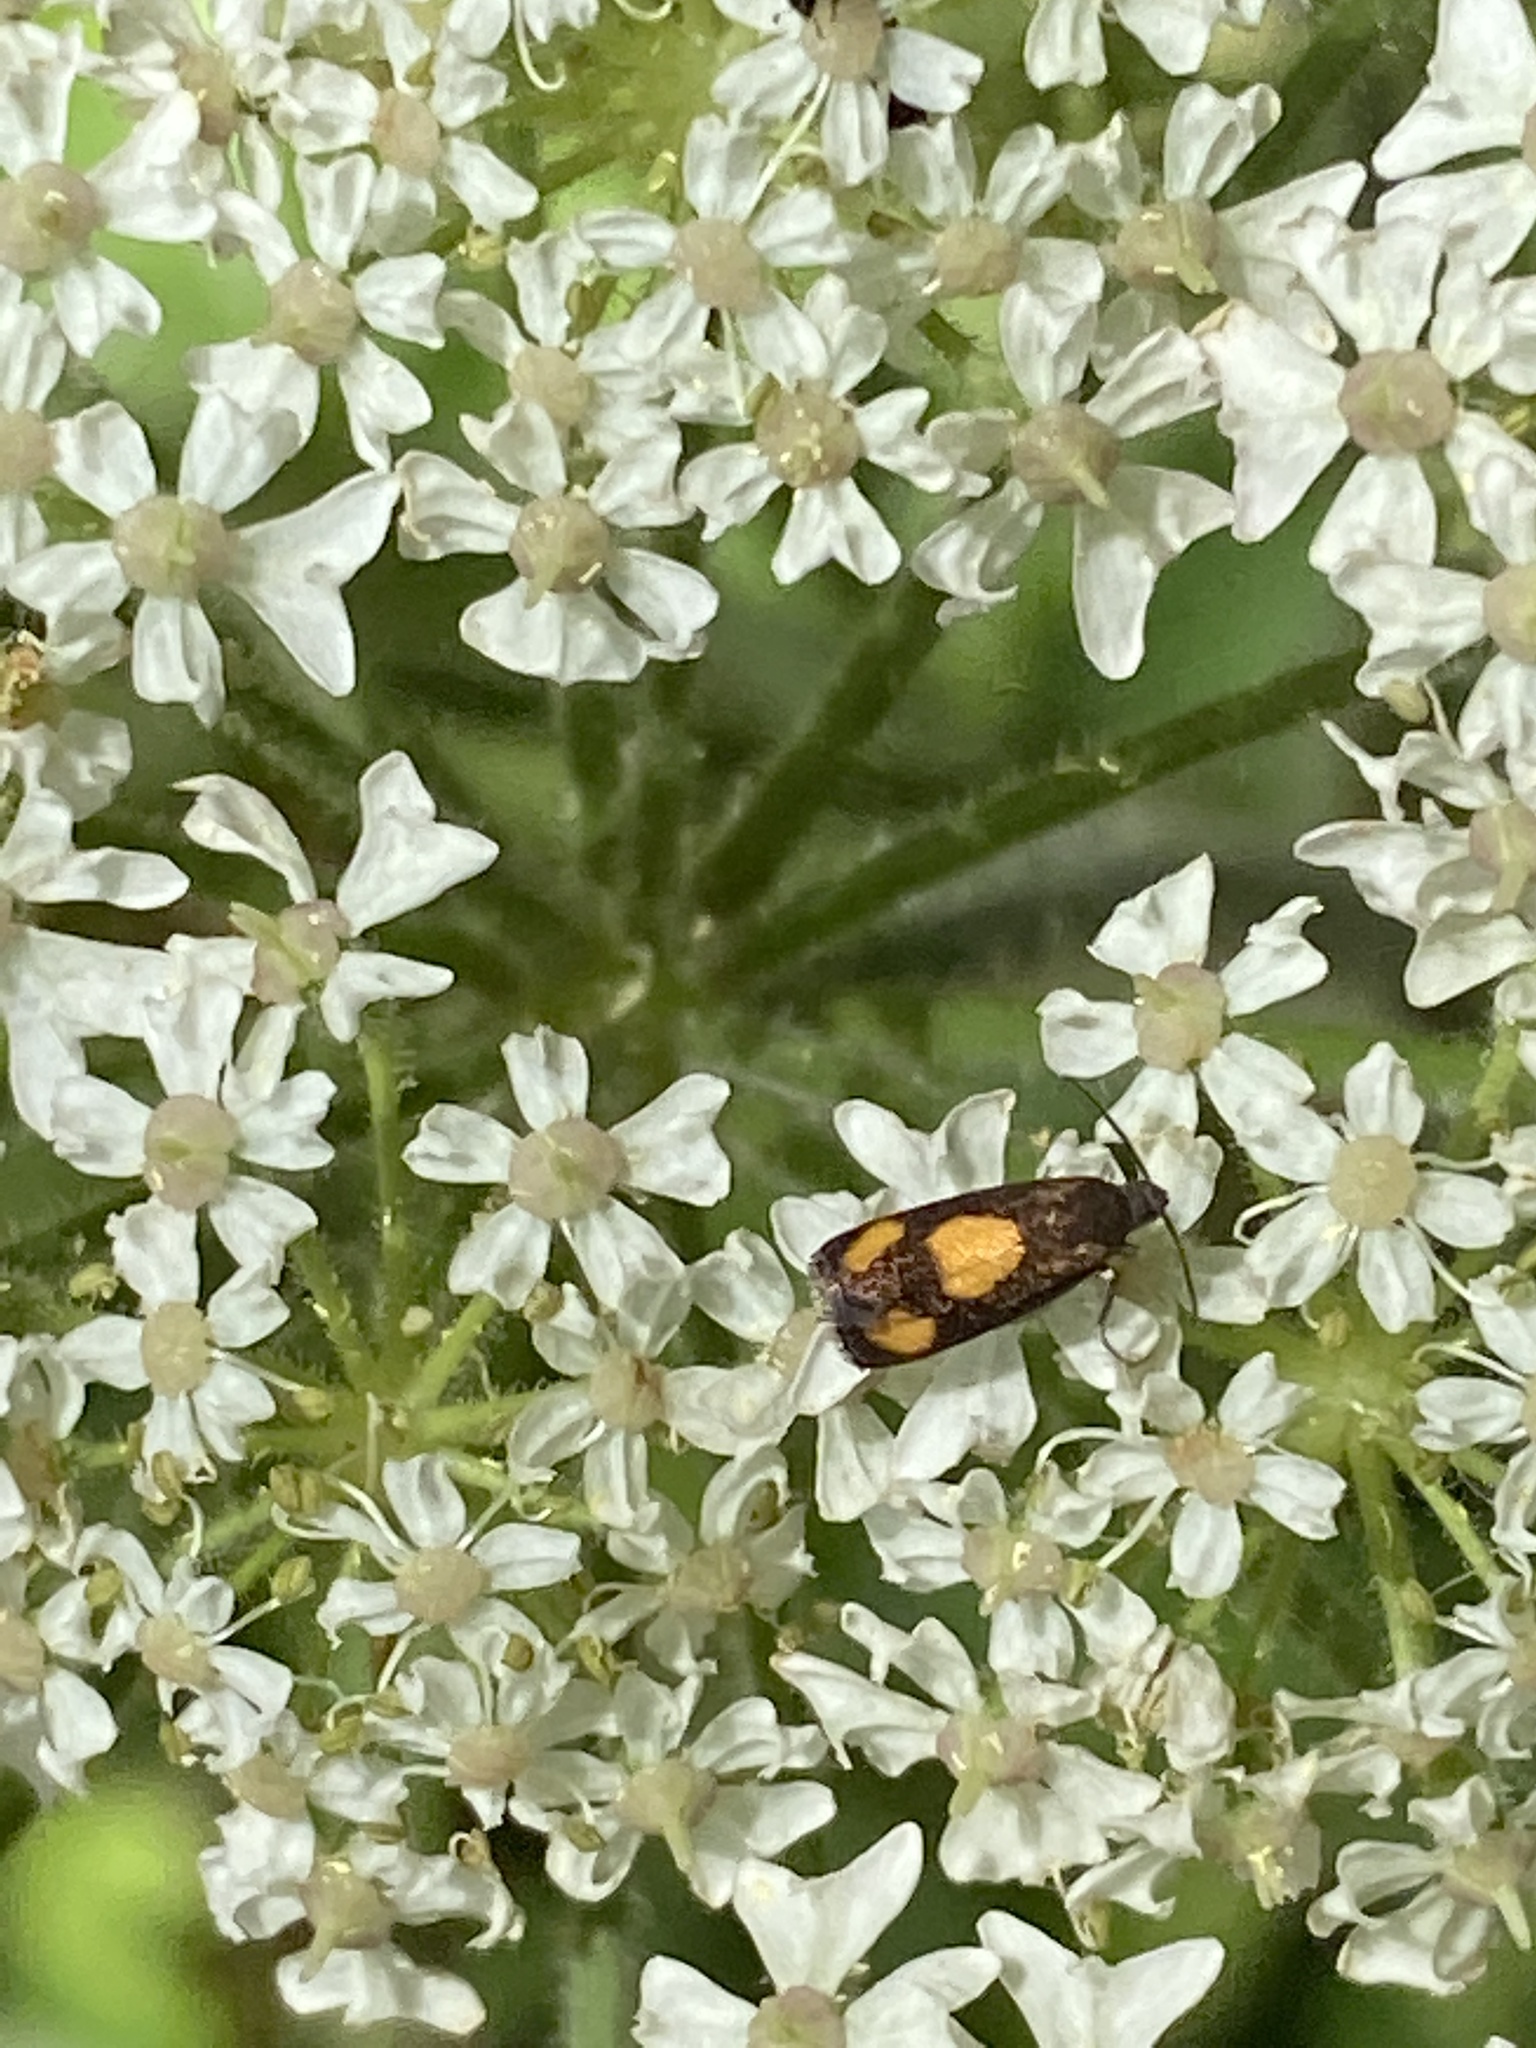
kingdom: Animalia
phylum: Arthropoda
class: Insecta
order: Lepidoptera
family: Tortricidae
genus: Pammene
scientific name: Pammene aurana
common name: Orange-spot piercer
